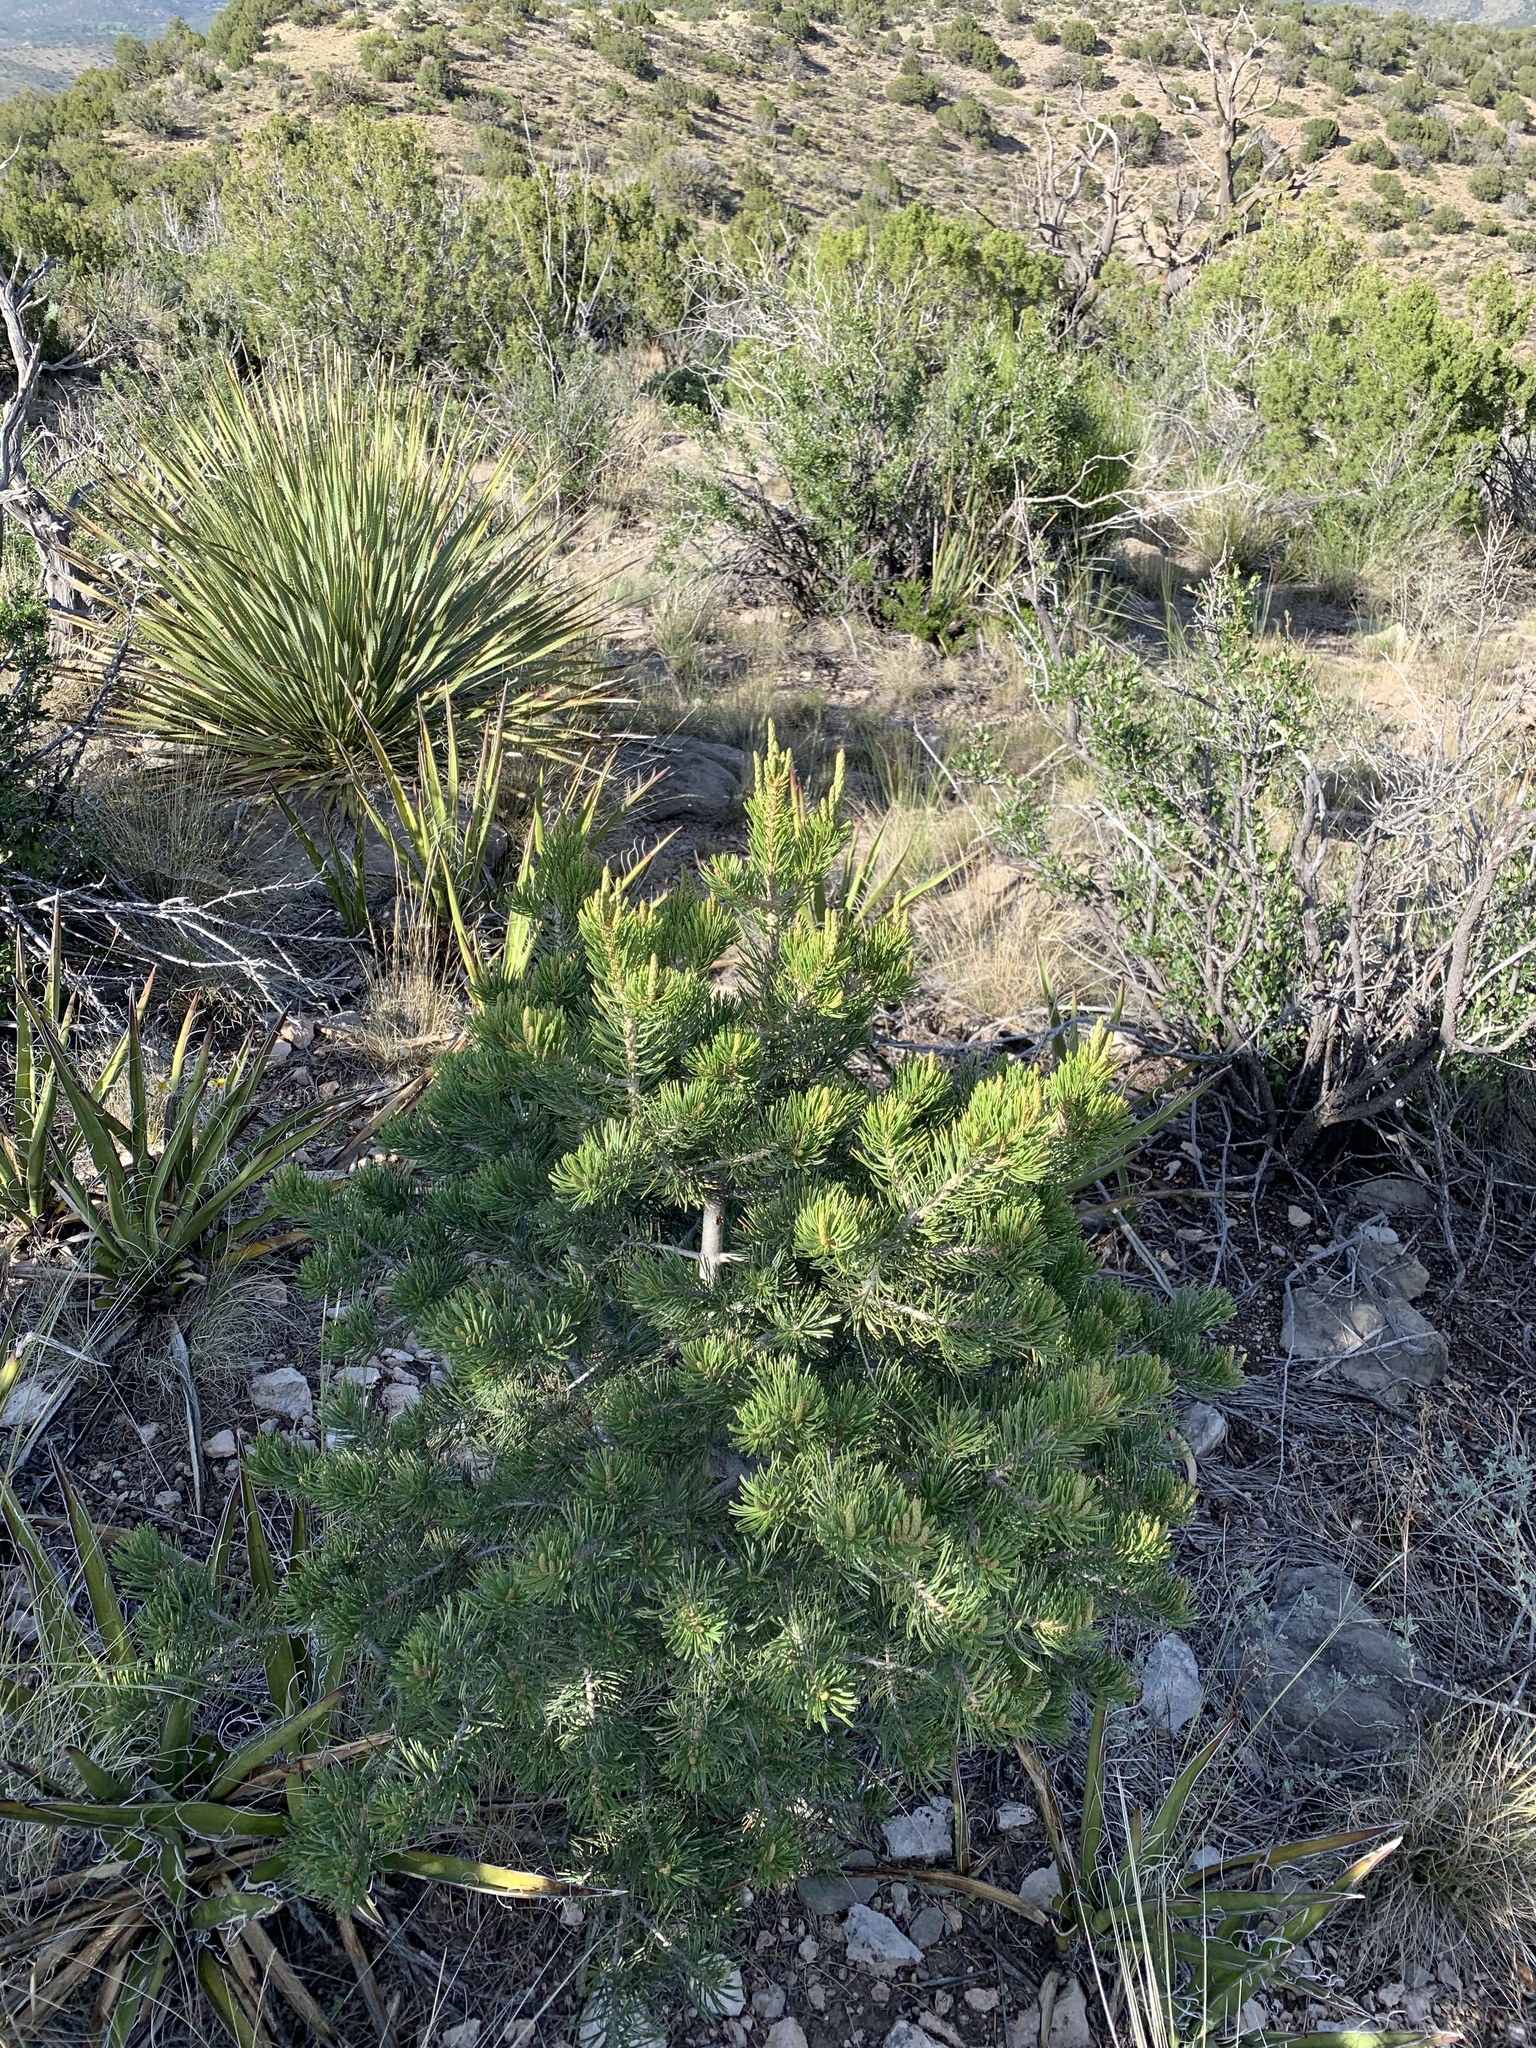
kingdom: Plantae
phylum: Tracheophyta
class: Pinopsida
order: Pinales
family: Pinaceae
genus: Pinus
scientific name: Pinus edulis
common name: Colorado pinyon
